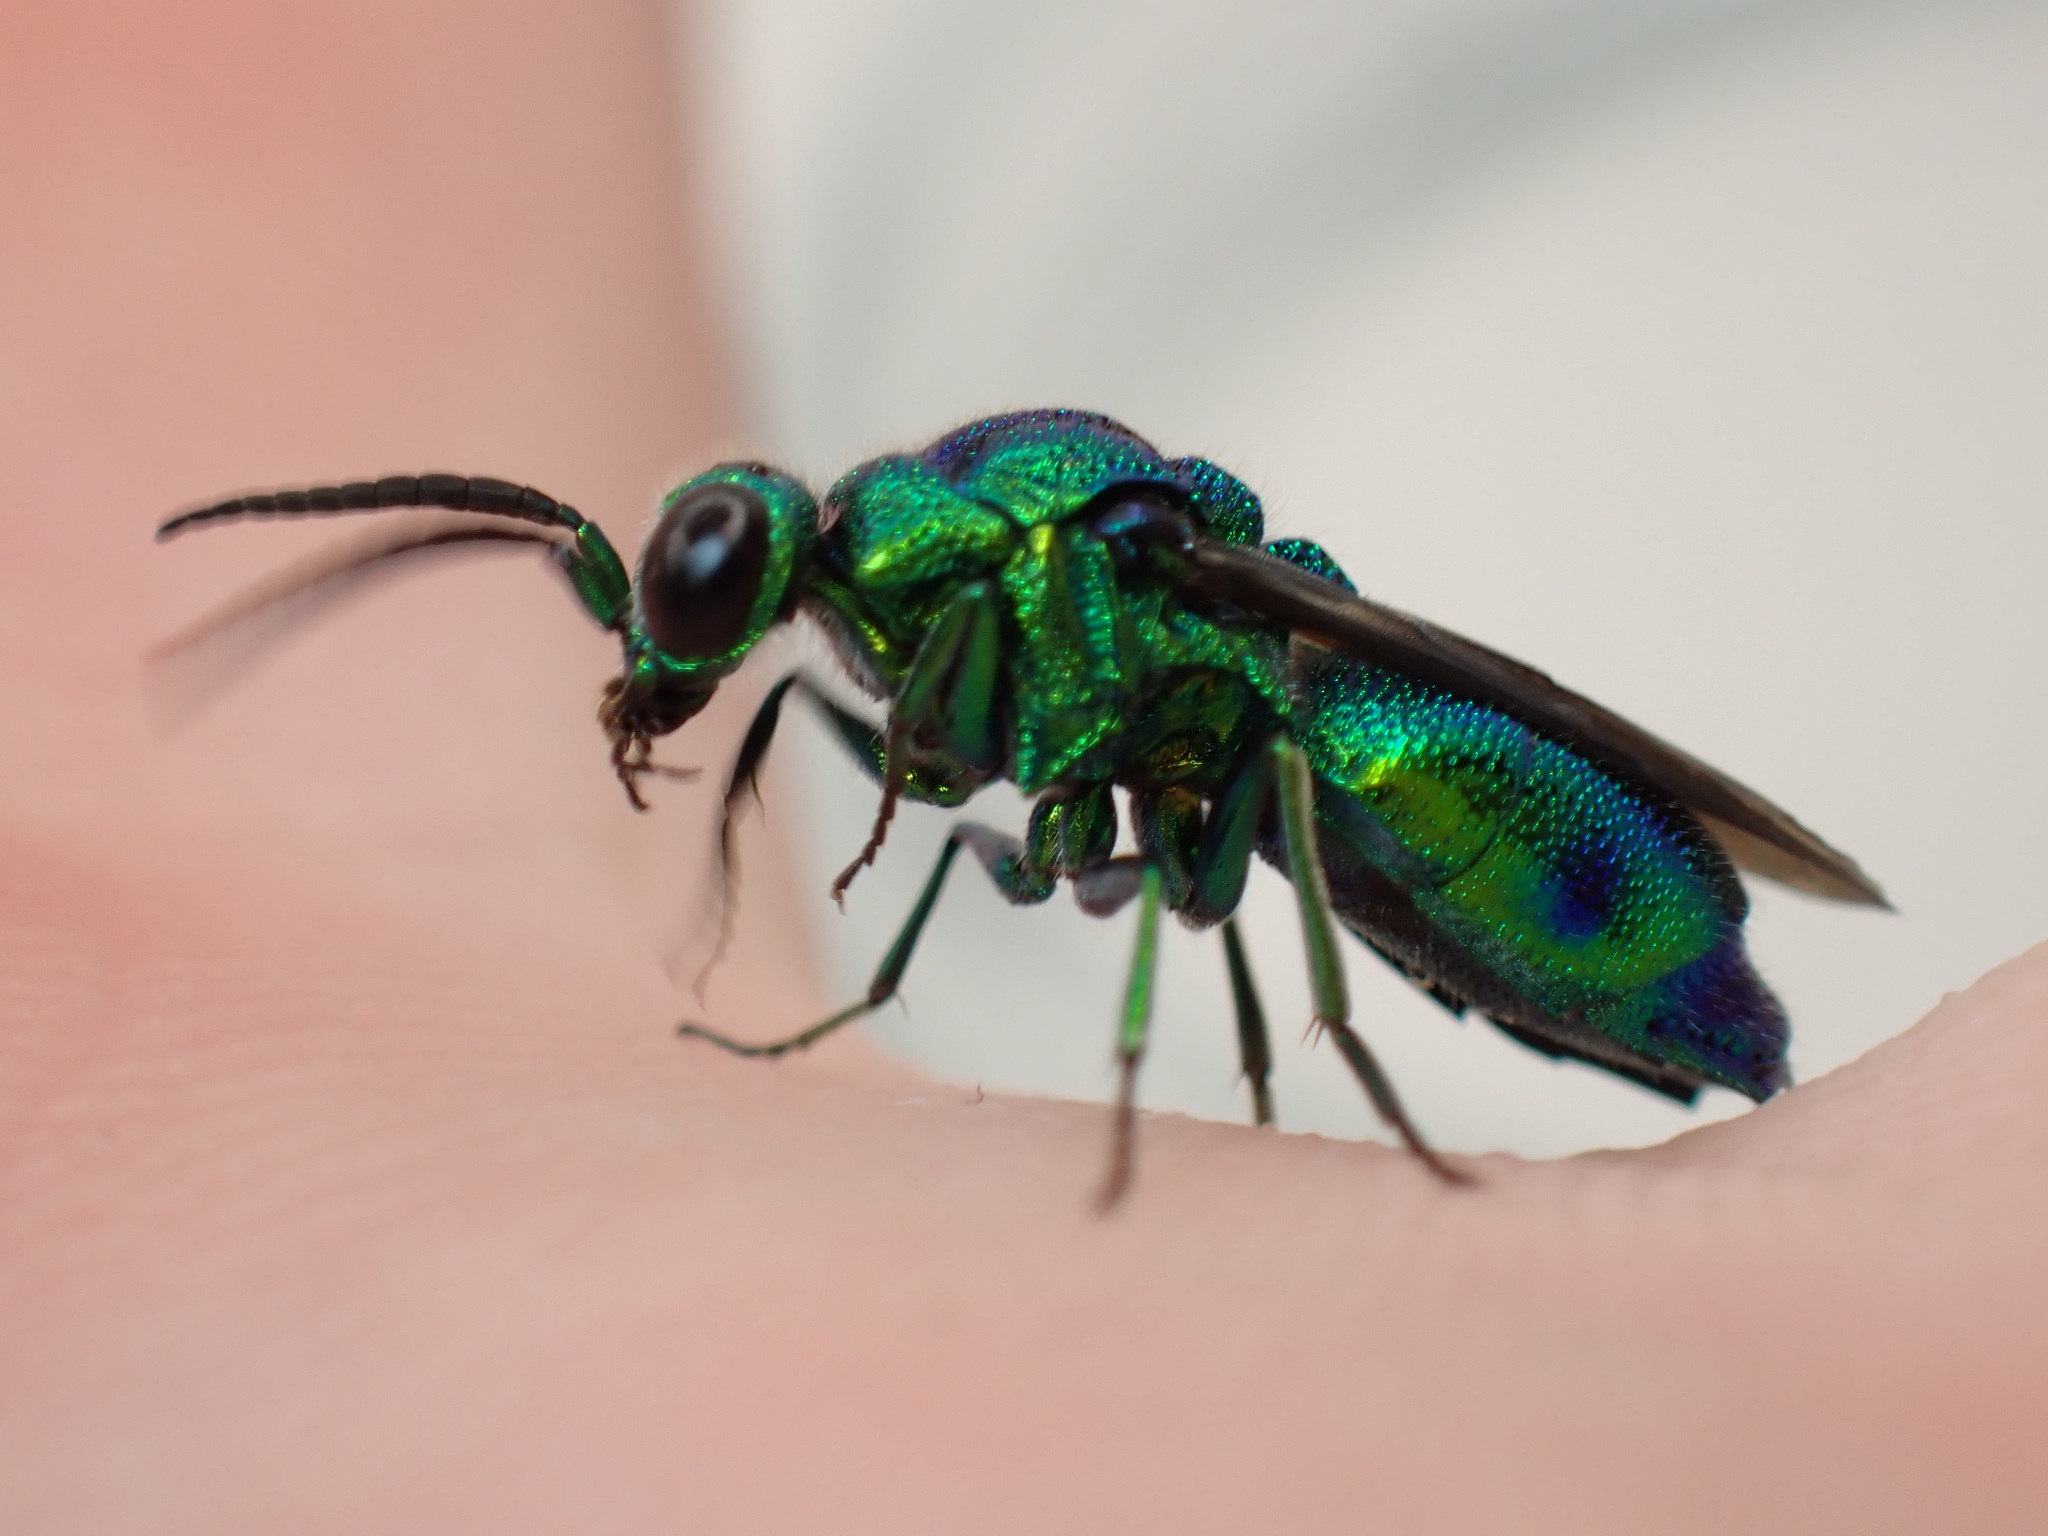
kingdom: Animalia
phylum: Arthropoda
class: Insecta
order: Hymenoptera
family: Chrysididae
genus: Chrysis
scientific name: Chrysis lincea
